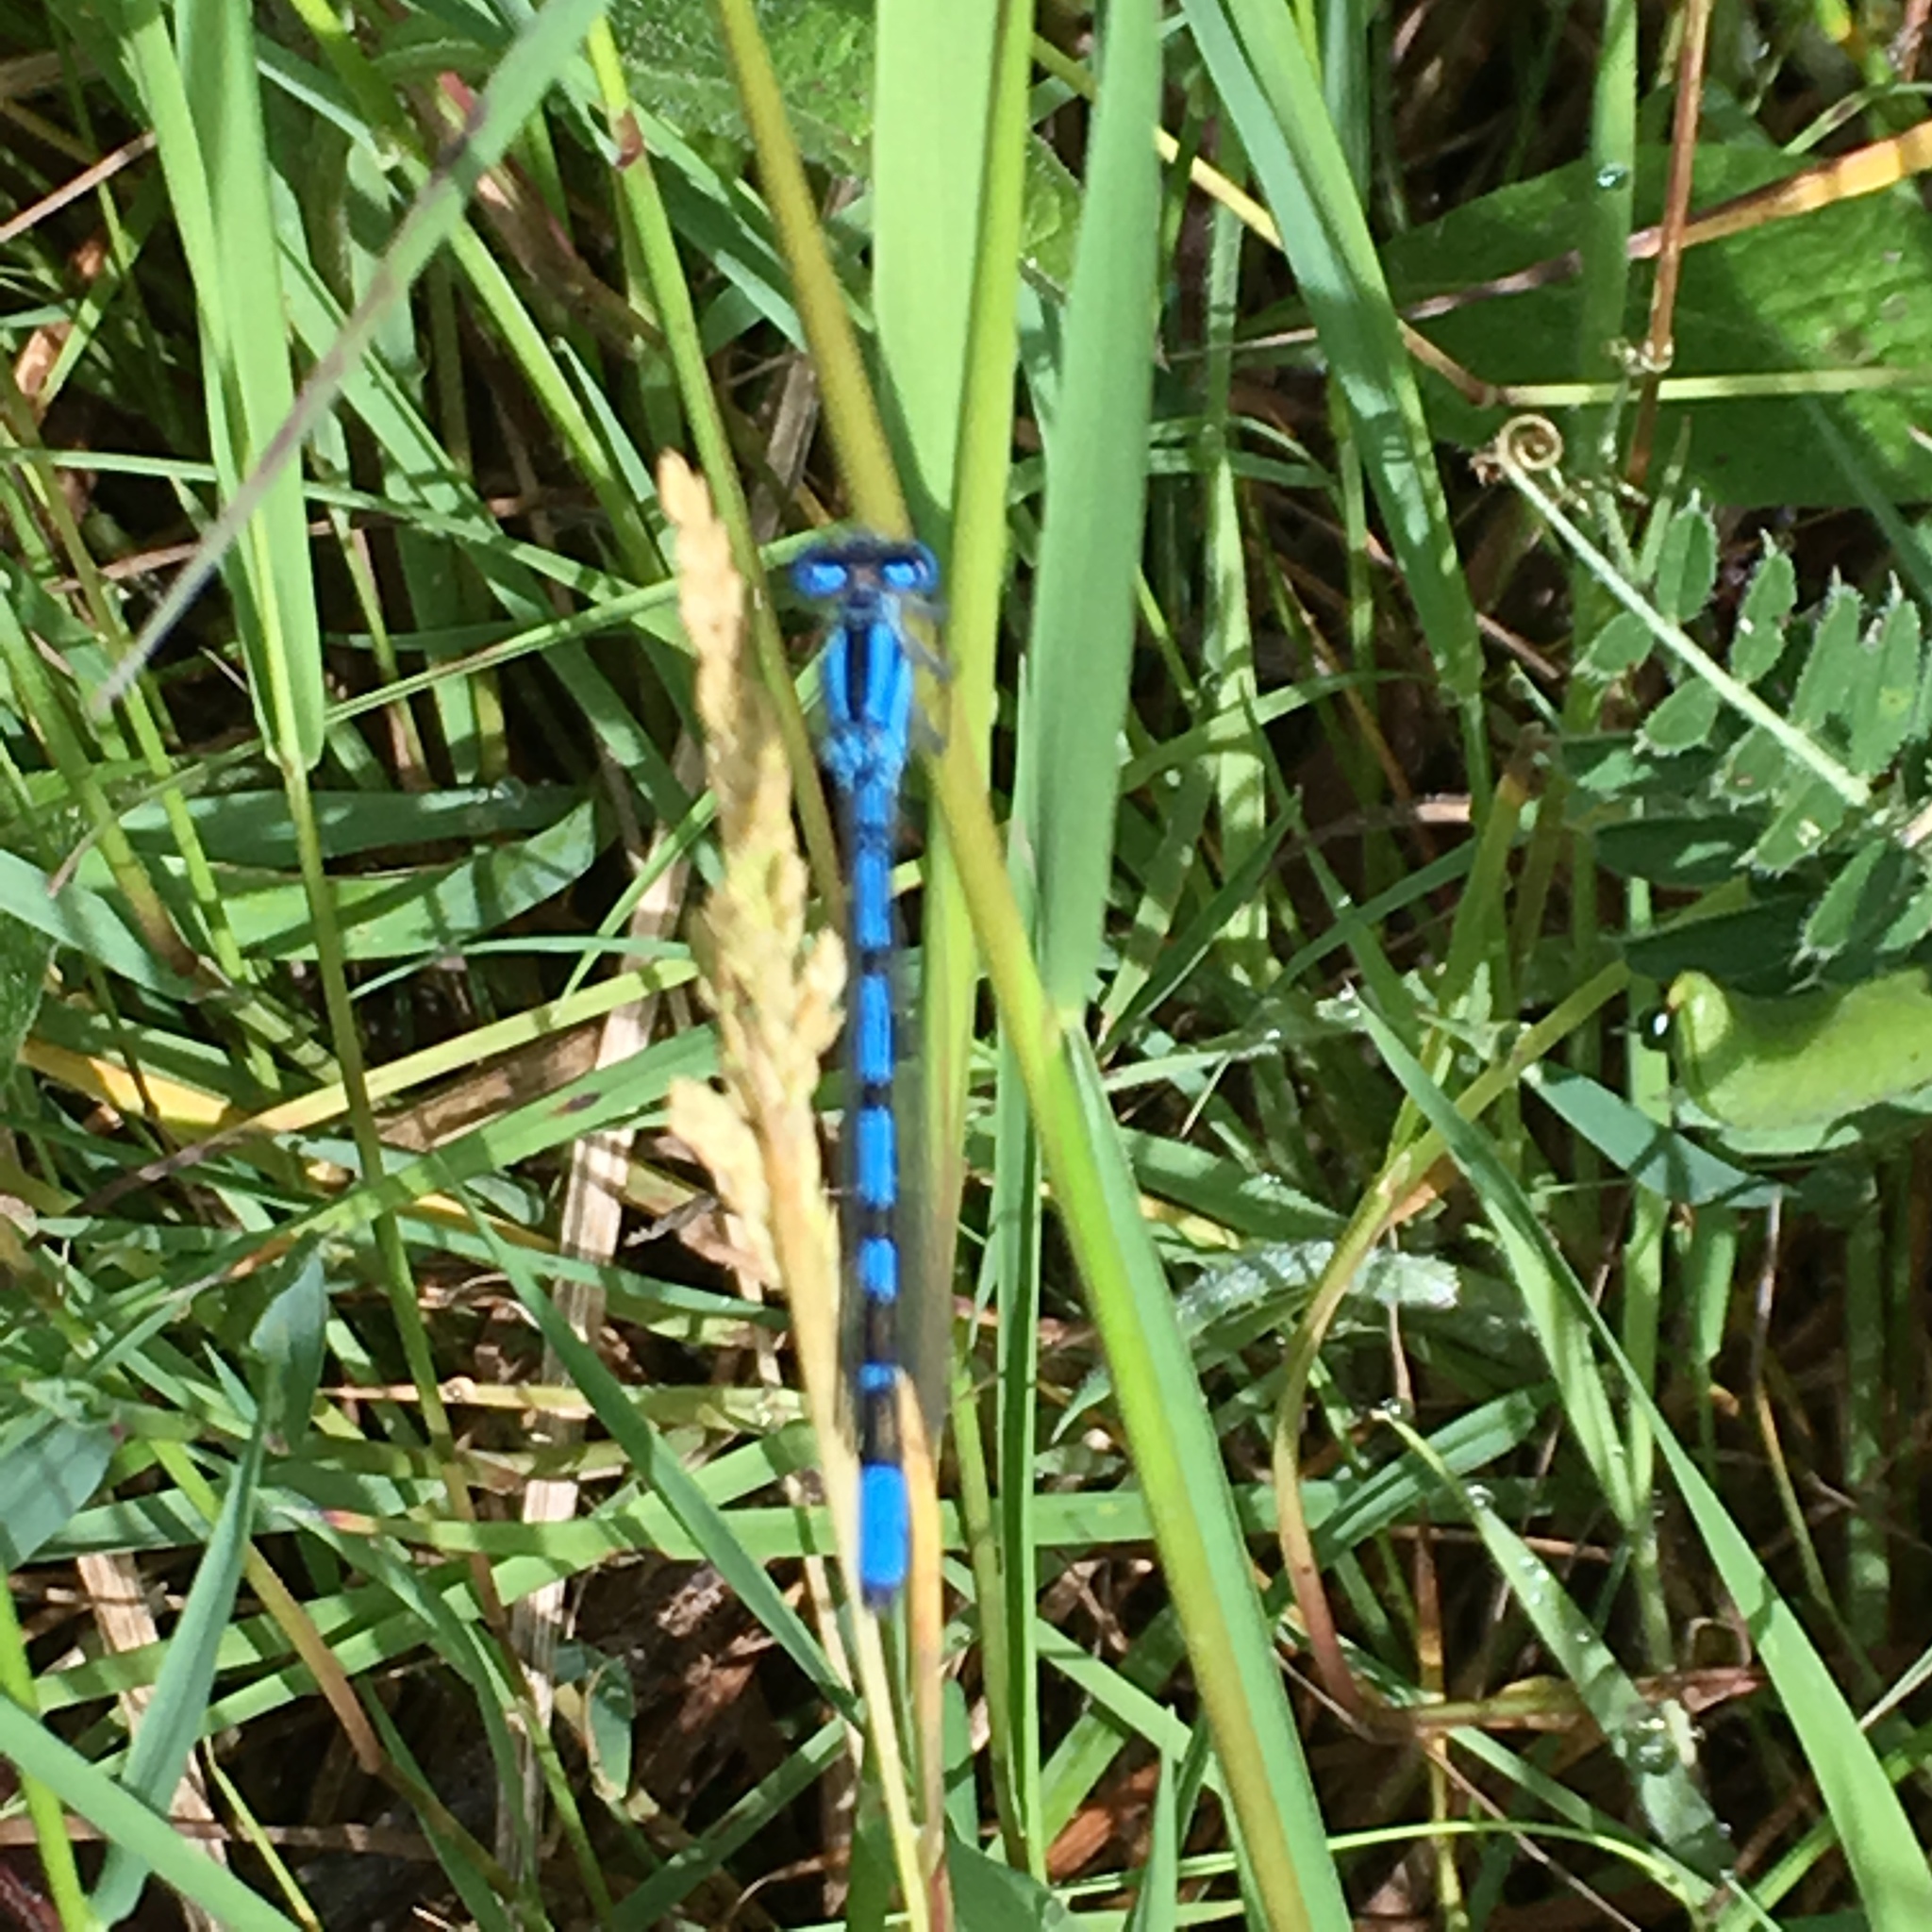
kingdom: Animalia
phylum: Arthropoda
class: Insecta
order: Odonata
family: Coenagrionidae
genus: Enallagma
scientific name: Enallagma cyathigerum
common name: Common blue damselfly
